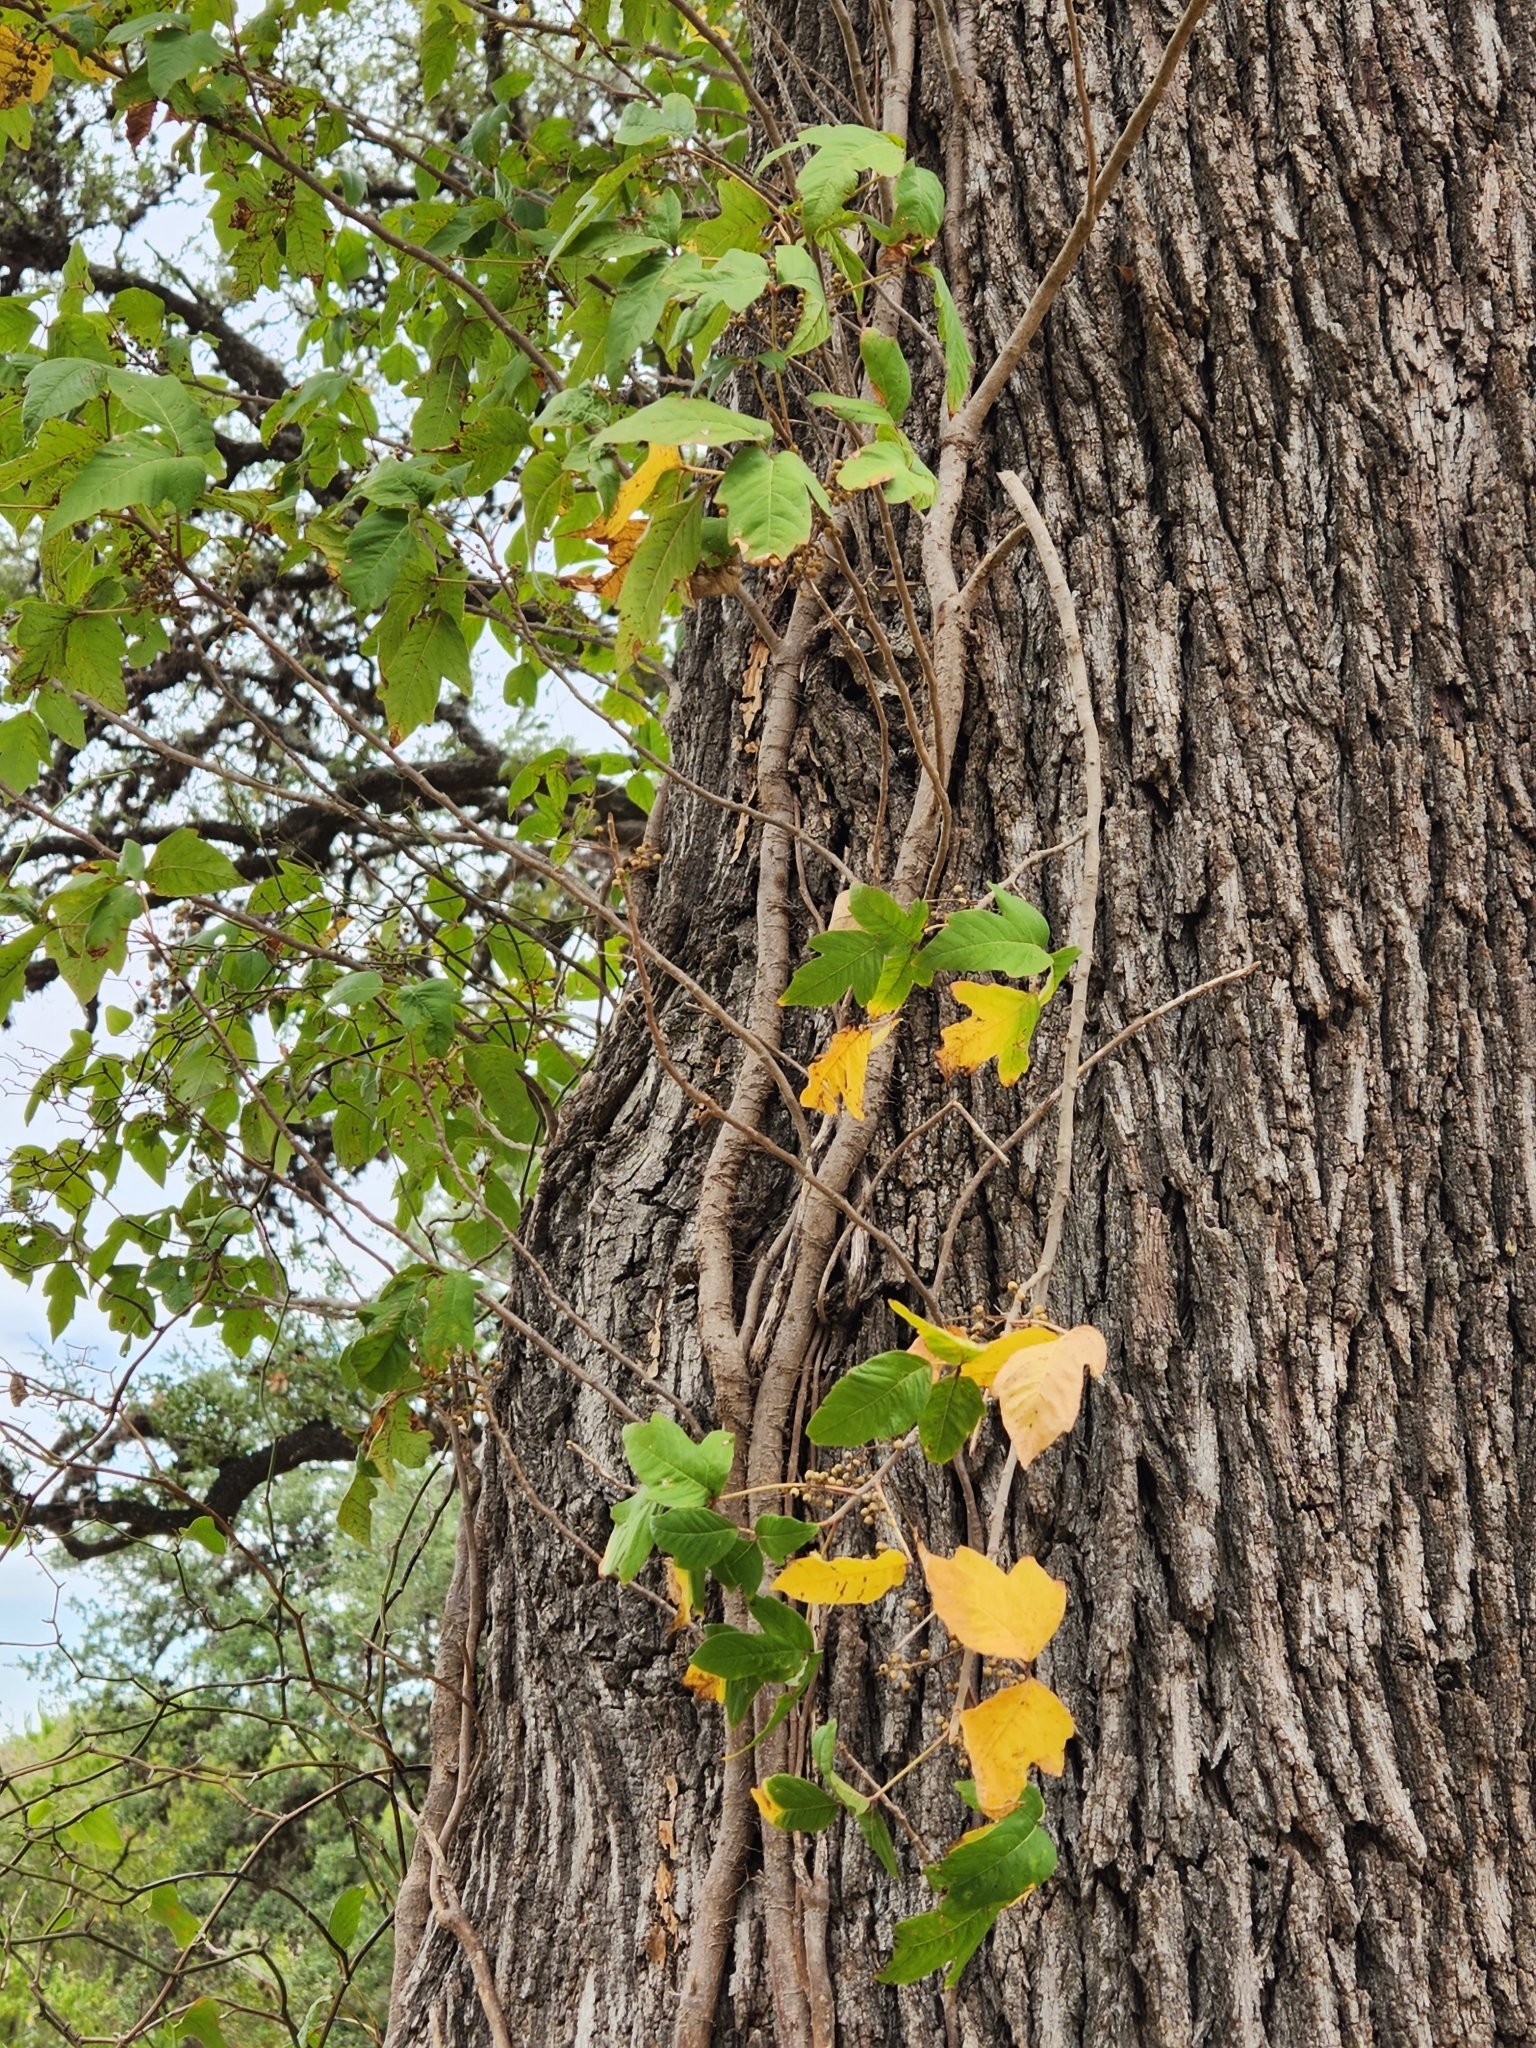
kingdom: Plantae
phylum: Tracheophyta
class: Magnoliopsida
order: Sapindales
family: Anacardiaceae
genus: Toxicodendron
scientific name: Toxicodendron radicans
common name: Poison ivy
